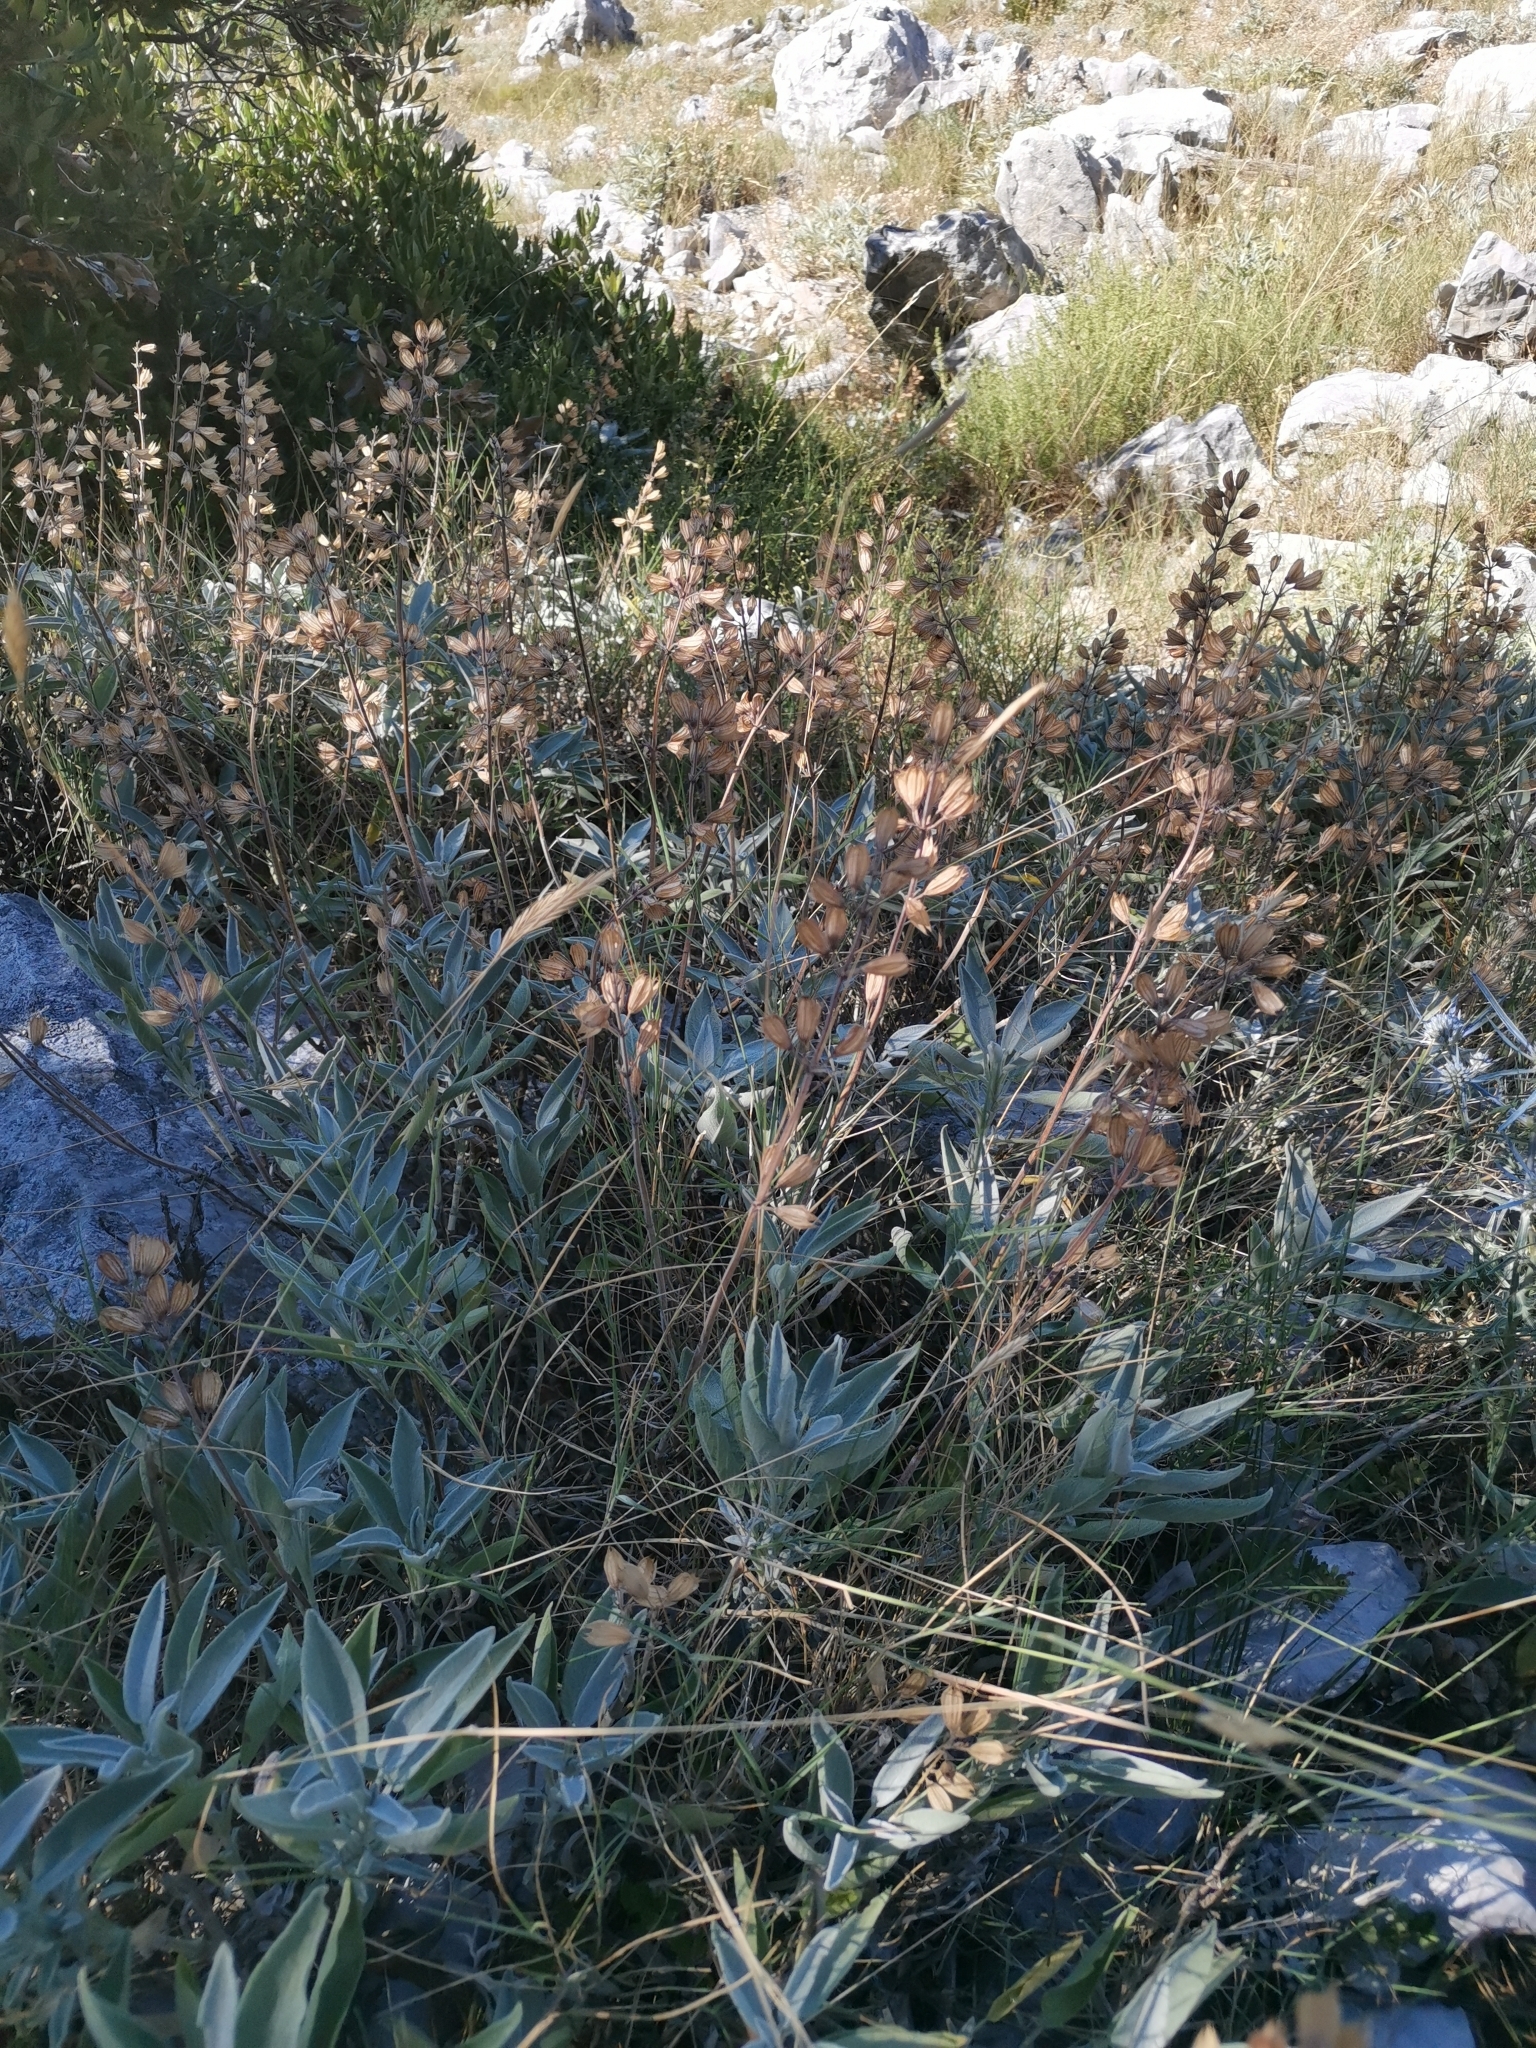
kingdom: Plantae
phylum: Tracheophyta
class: Magnoliopsida
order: Lamiales
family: Lamiaceae
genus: Salvia
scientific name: Salvia officinalis
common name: Sage
